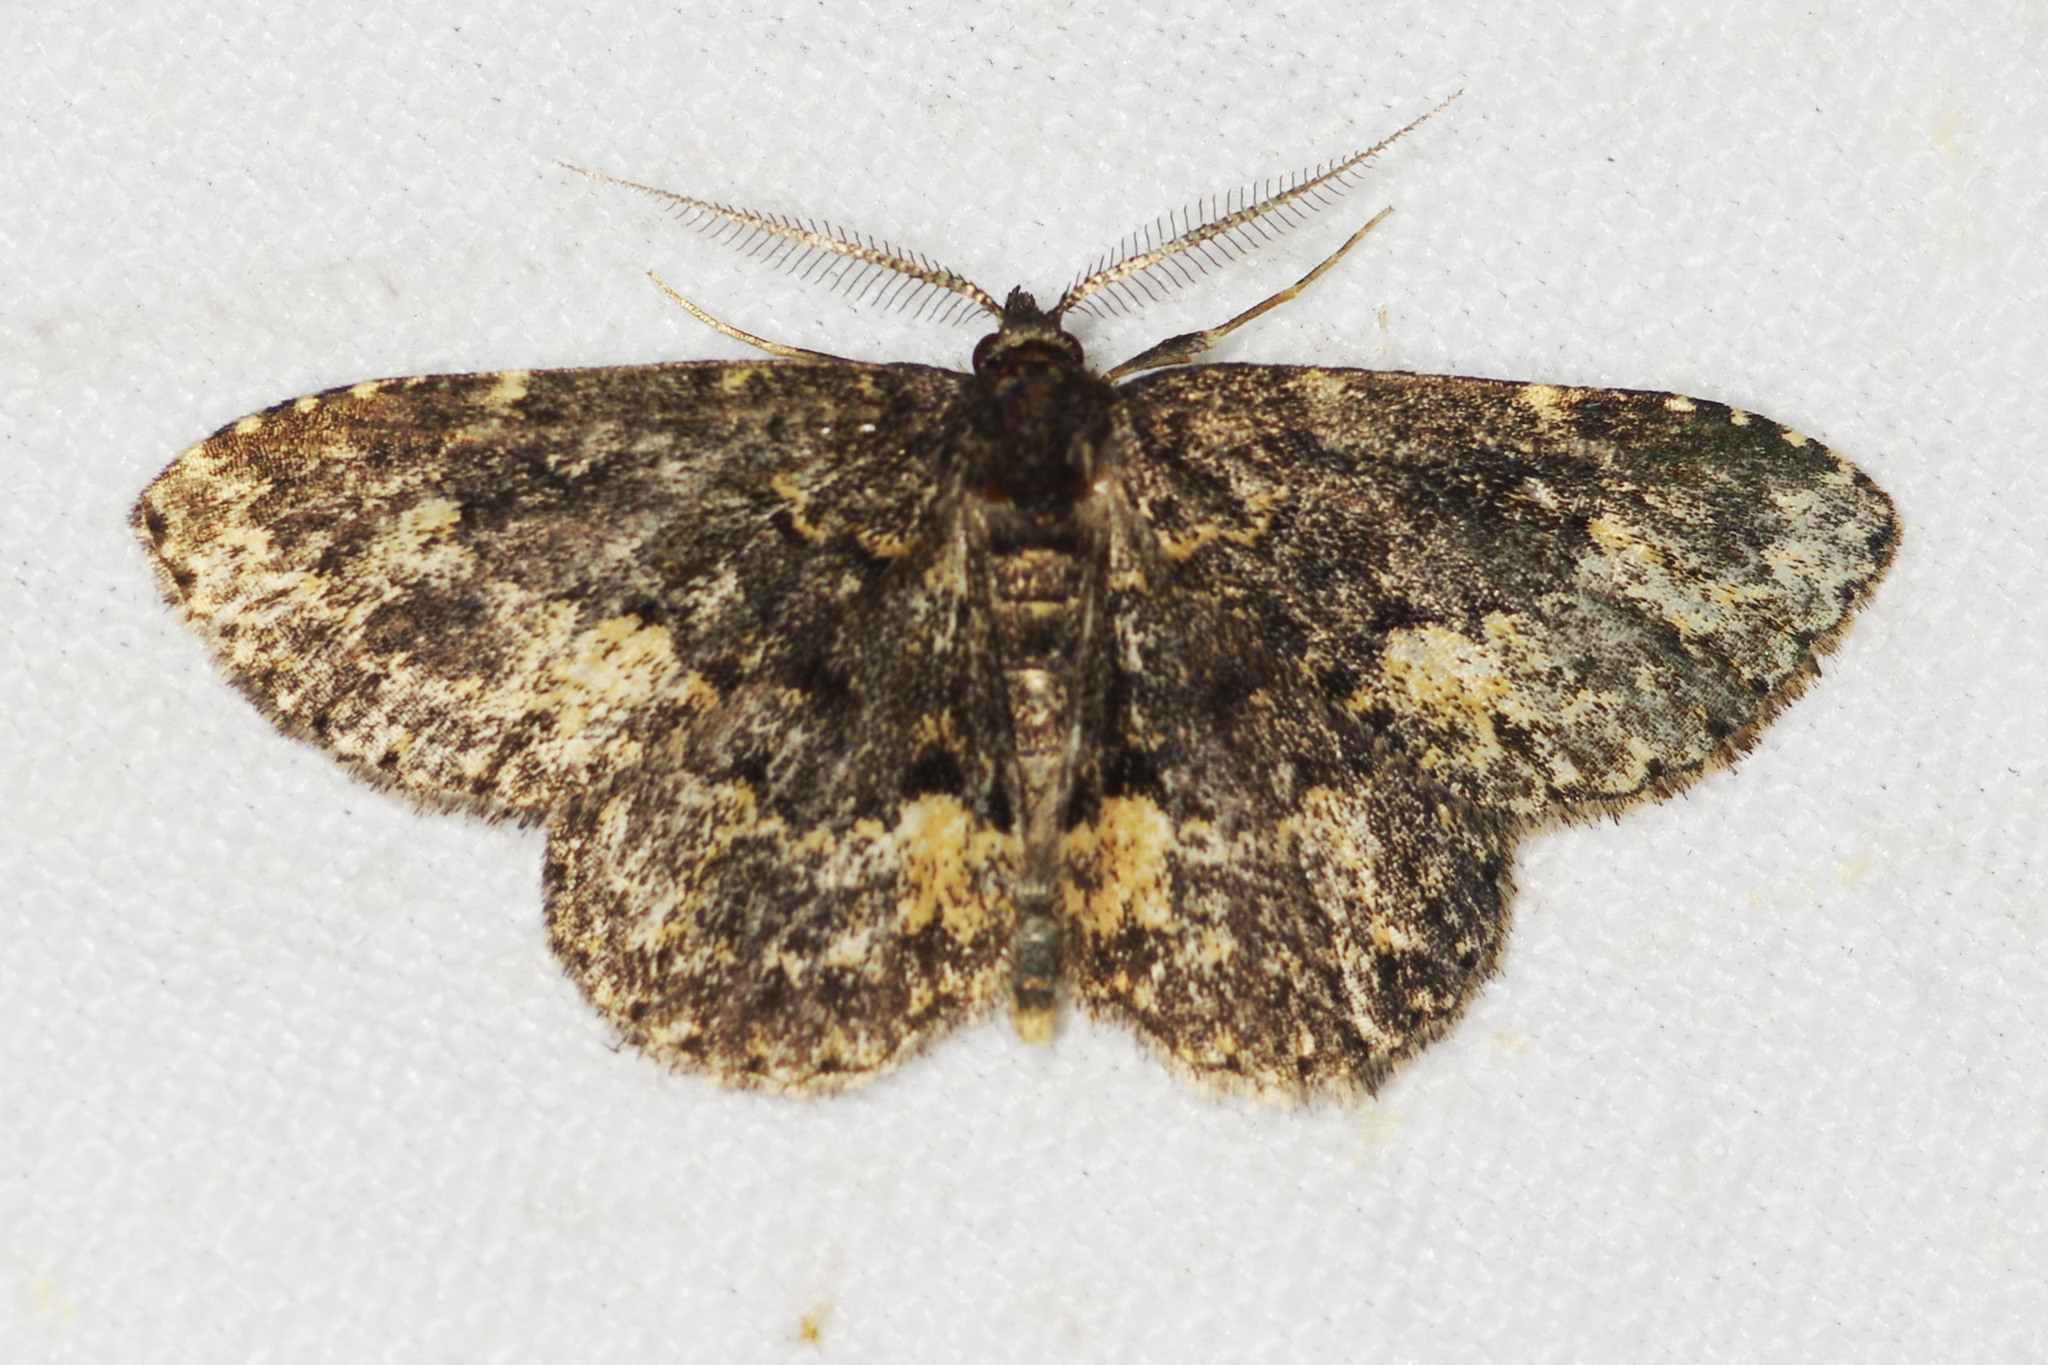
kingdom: Animalia
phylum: Arthropoda
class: Insecta
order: Lepidoptera
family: Erebidae
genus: Parascotia
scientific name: Parascotia fuliginaria
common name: Waved black
